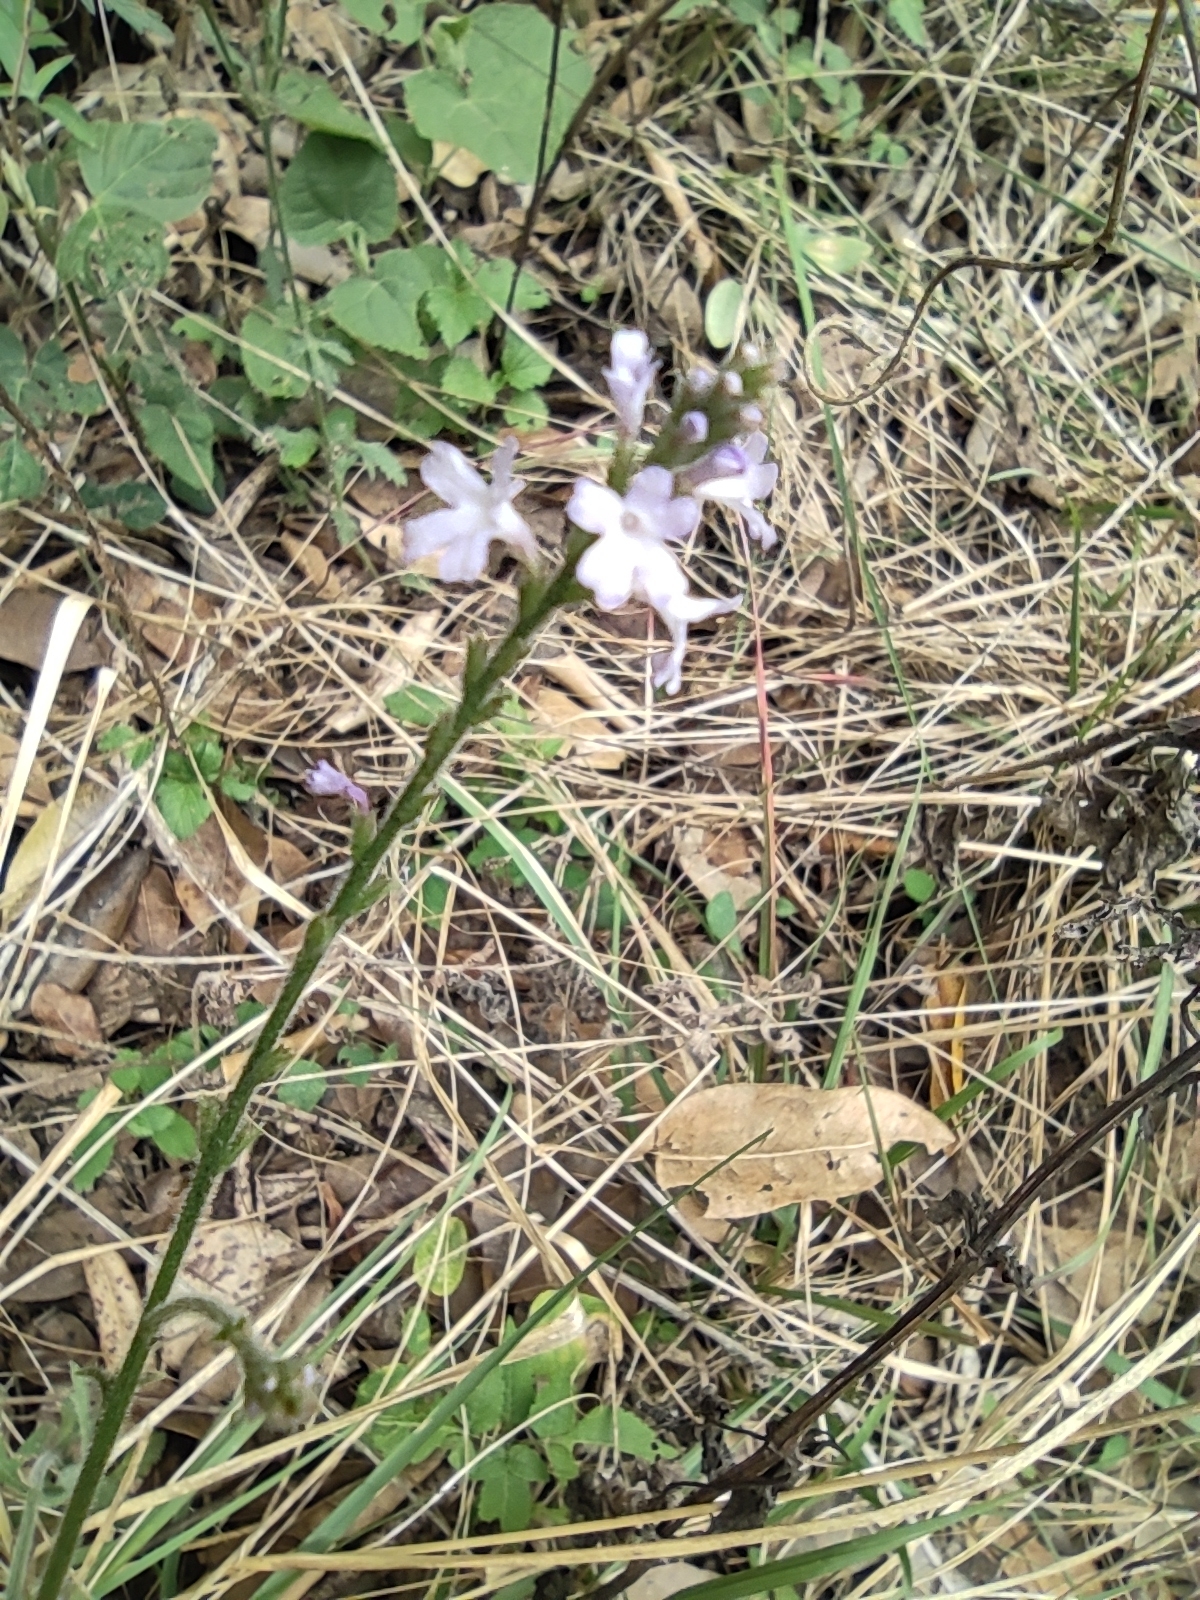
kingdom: Plantae
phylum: Tracheophyta
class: Magnoliopsida
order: Lamiales
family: Verbenaceae
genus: Verbena
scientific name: Verbena halei
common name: Texas vervain
